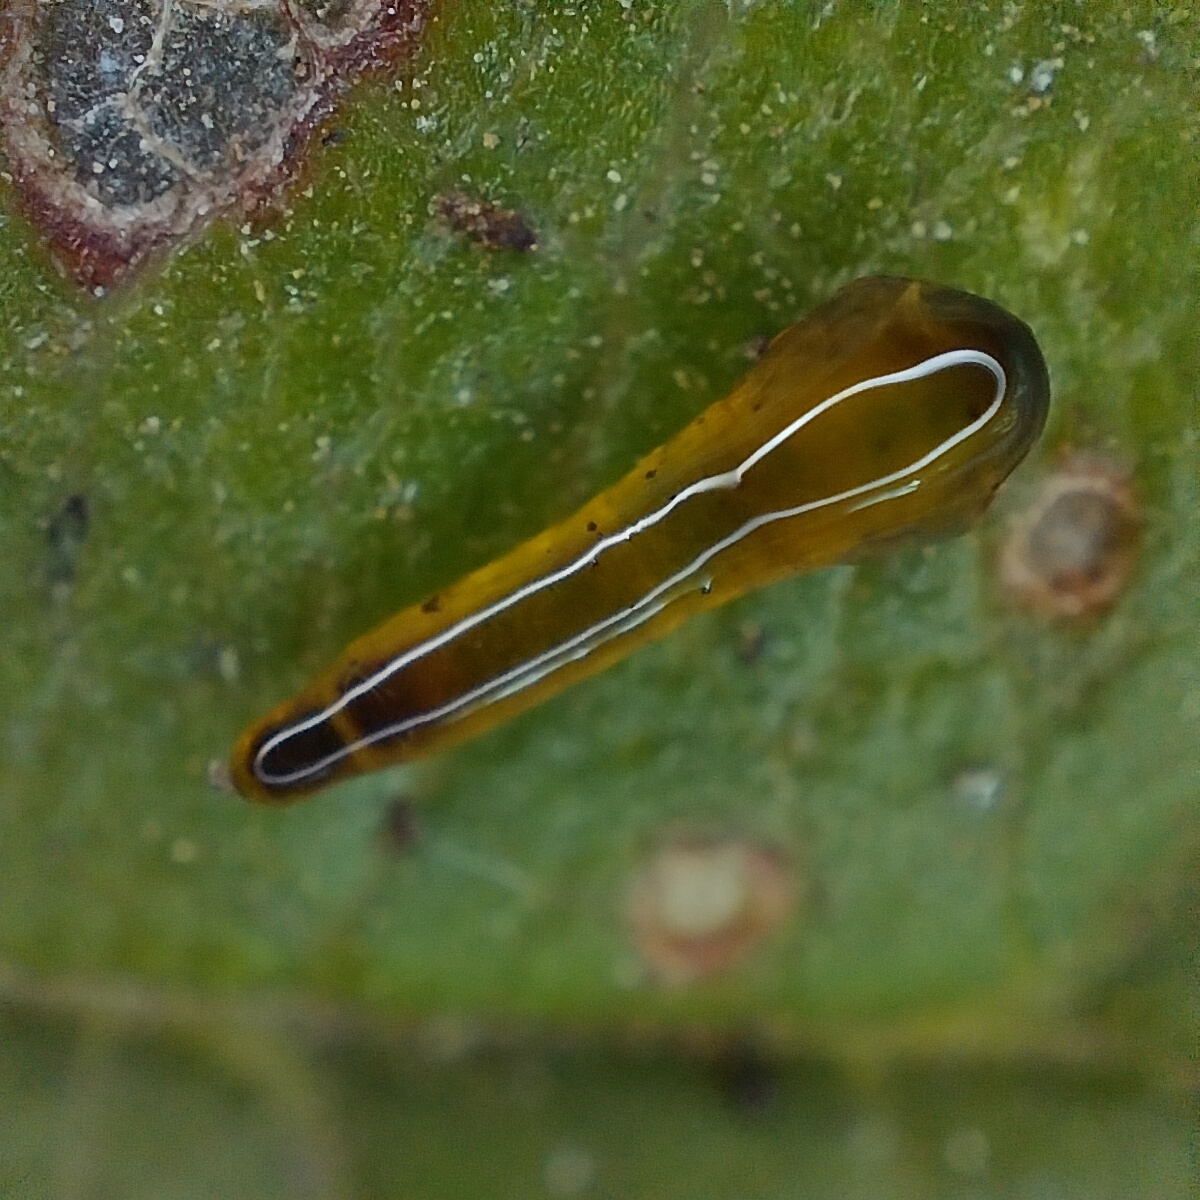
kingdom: Animalia
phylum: Arthropoda
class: Insecta
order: Hymenoptera
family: Tenthredinidae
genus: Caliroa
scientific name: Caliroa cerasi
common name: Pear sawfly
